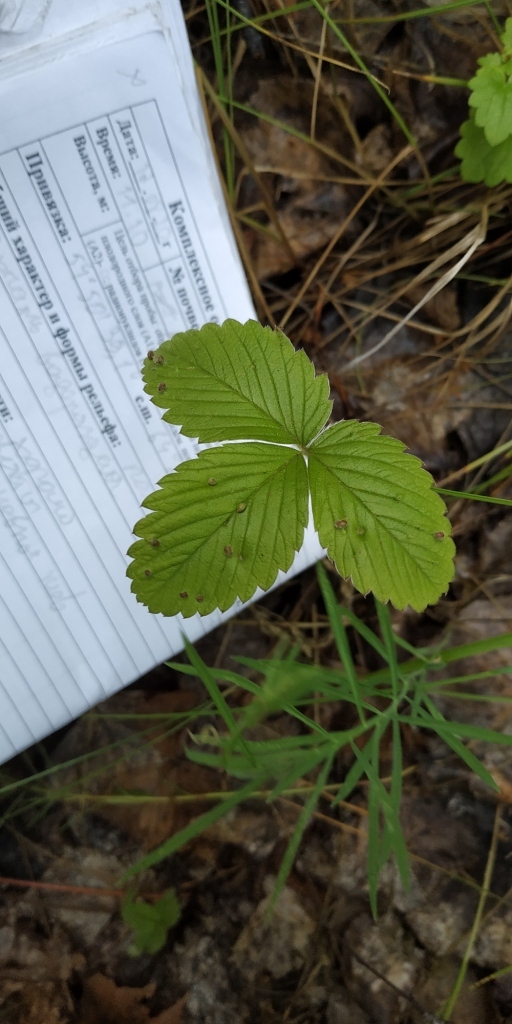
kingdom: Plantae
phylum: Tracheophyta
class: Magnoliopsida
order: Rosales
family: Rosaceae
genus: Fragaria
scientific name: Fragaria viridis
